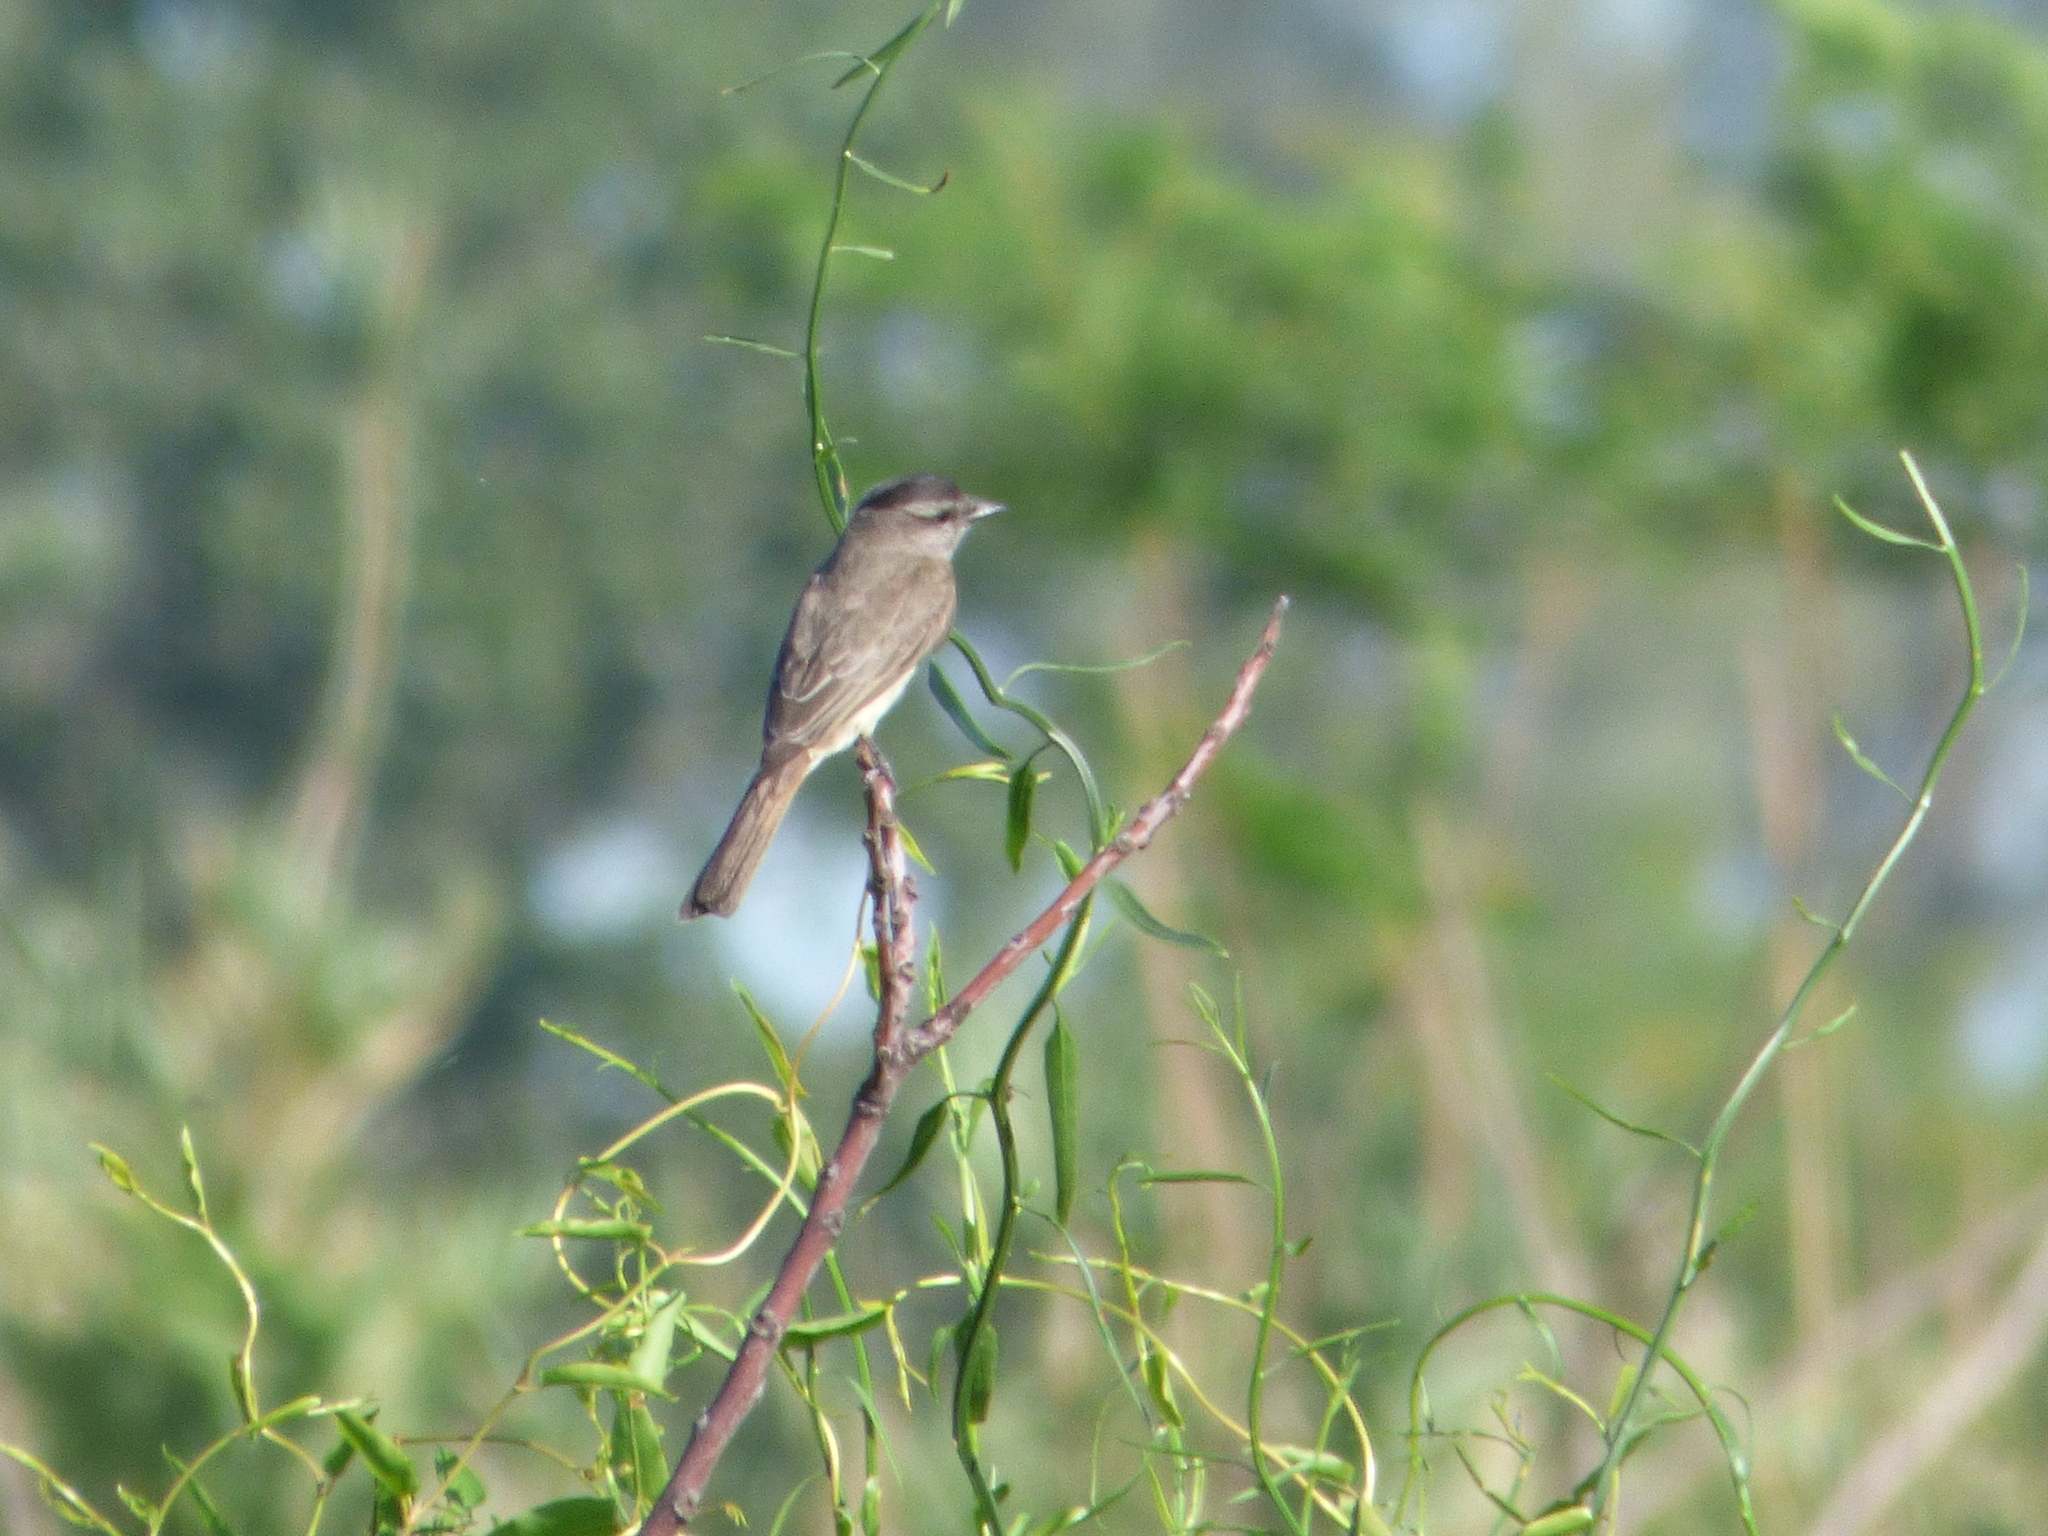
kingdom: Animalia
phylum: Chordata
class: Aves
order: Passeriformes
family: Tyrannidae
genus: Empidonomus
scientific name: Empidonomus aurantioatrocristatus
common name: Crowned slaty flycatcher
